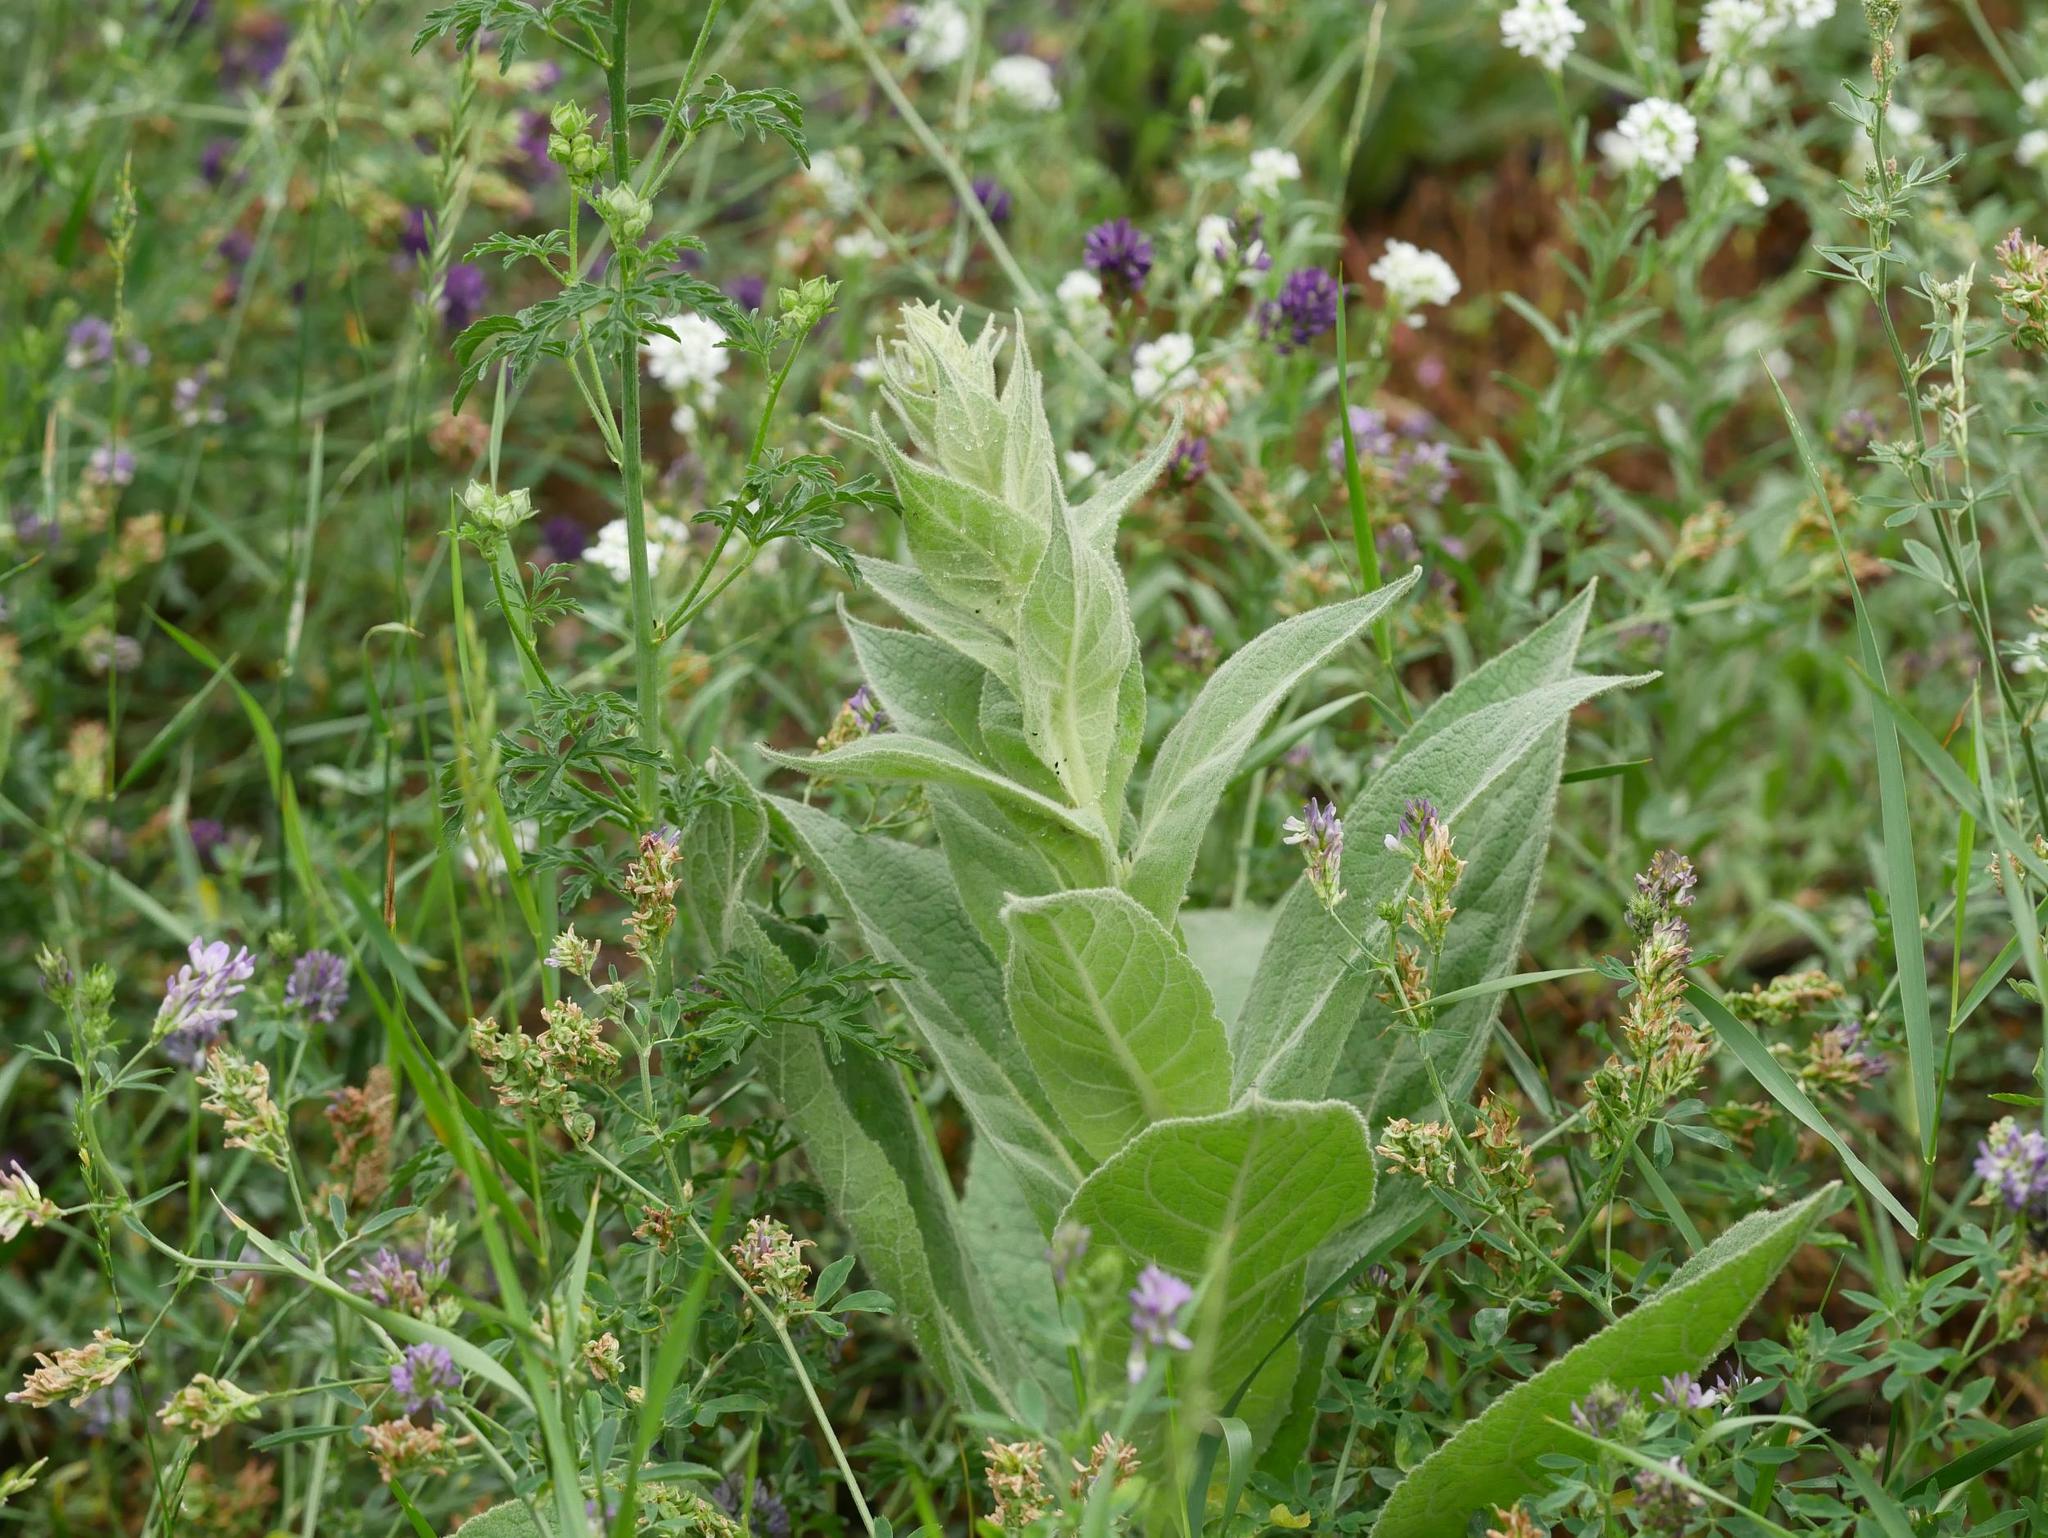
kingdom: Plantae
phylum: Tracheophyta
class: Magnoliopsida
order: Malvales
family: Malvaceae
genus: Malva
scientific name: Malva alcea
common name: Greater musk-mallow
